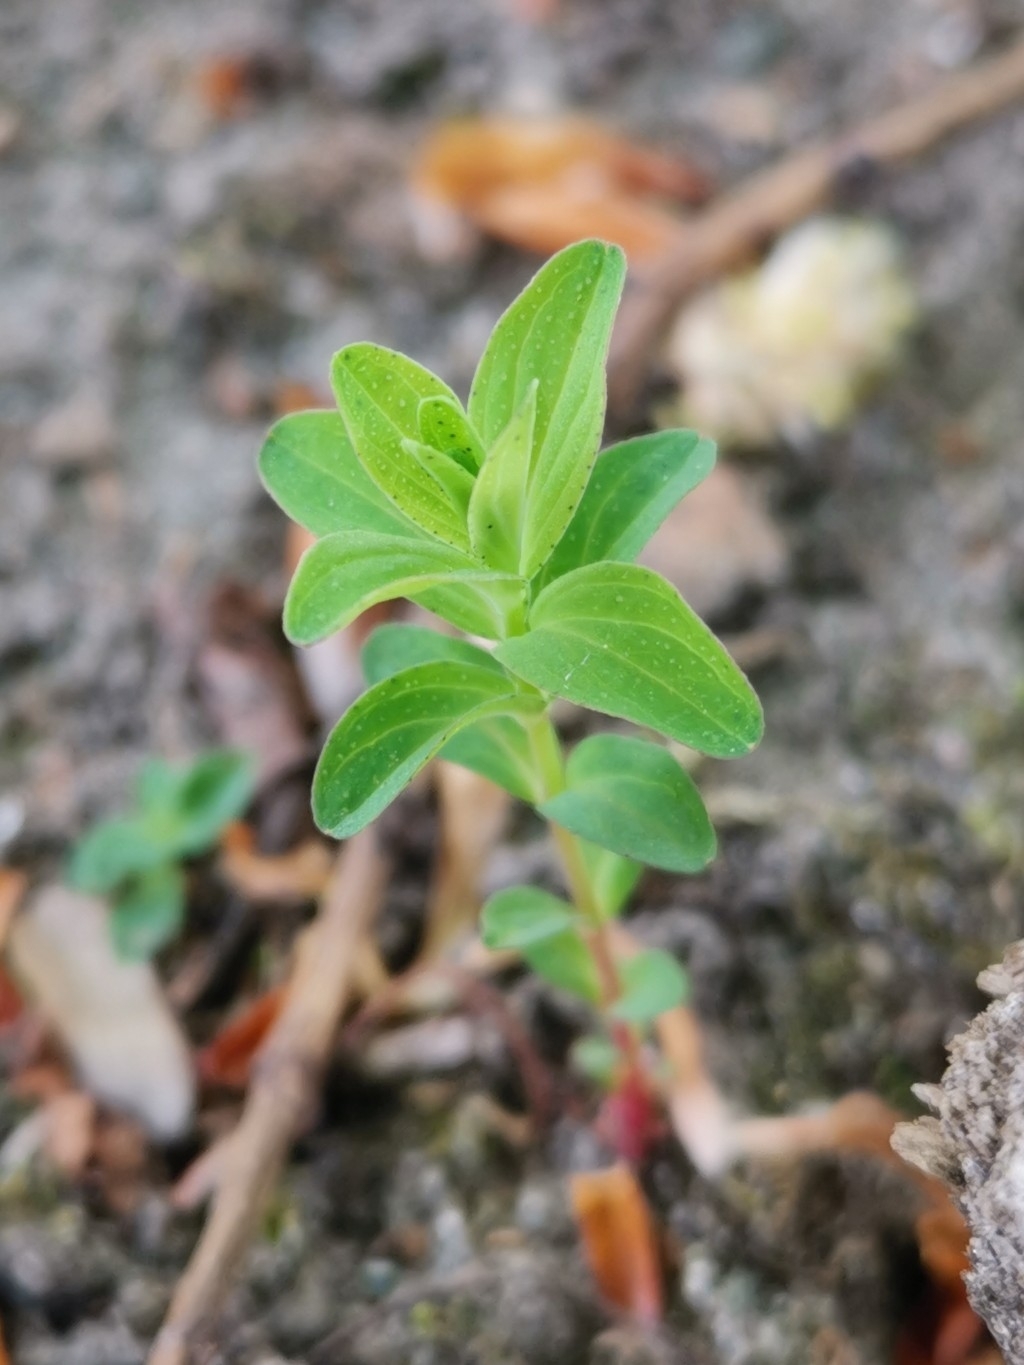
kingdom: Plantae
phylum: Tracheophyta
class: Magnoliopsida
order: Malpighiales
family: Hypericaceae
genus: Hypericum
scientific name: Hypericum perforatum
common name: Common st. johnswort
